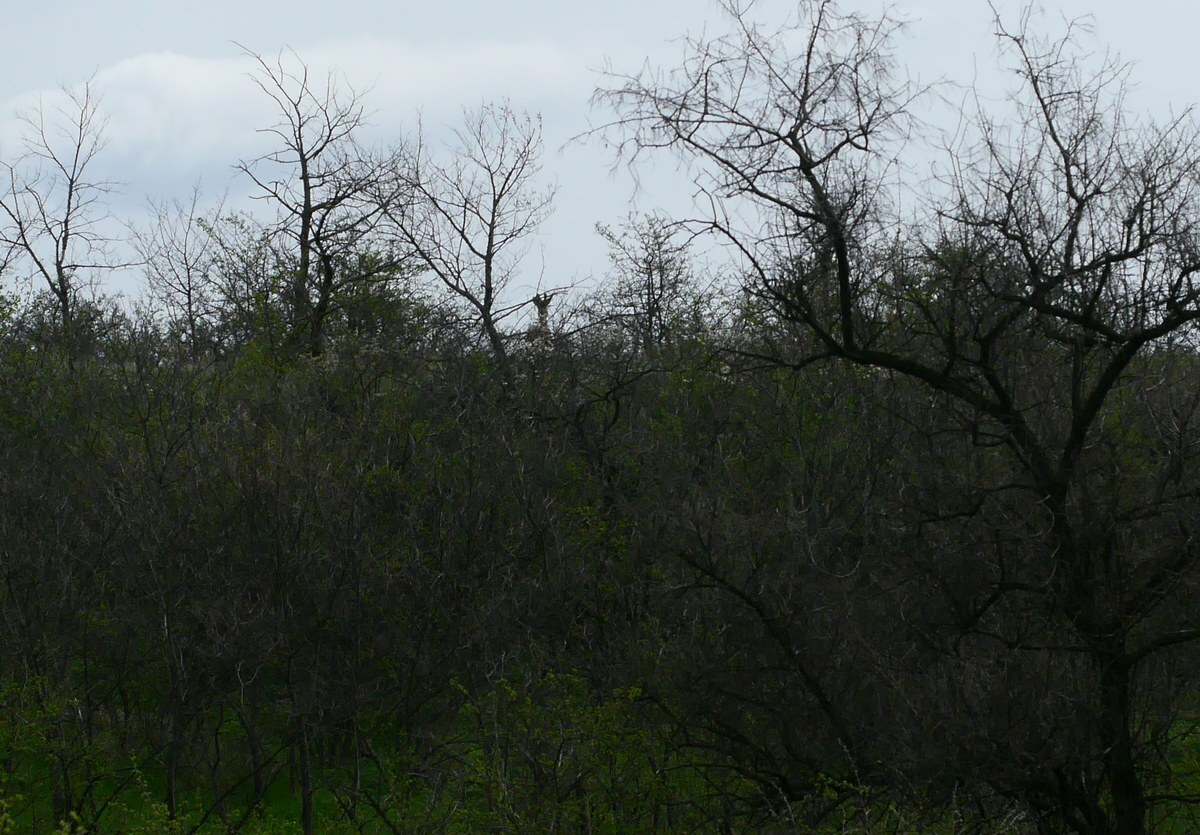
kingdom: Animalia
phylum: Chordata
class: Mammalia
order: Artiodactyla
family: Cervidae
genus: Capreolus
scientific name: Capreolus capreolus
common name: Western roe deer
